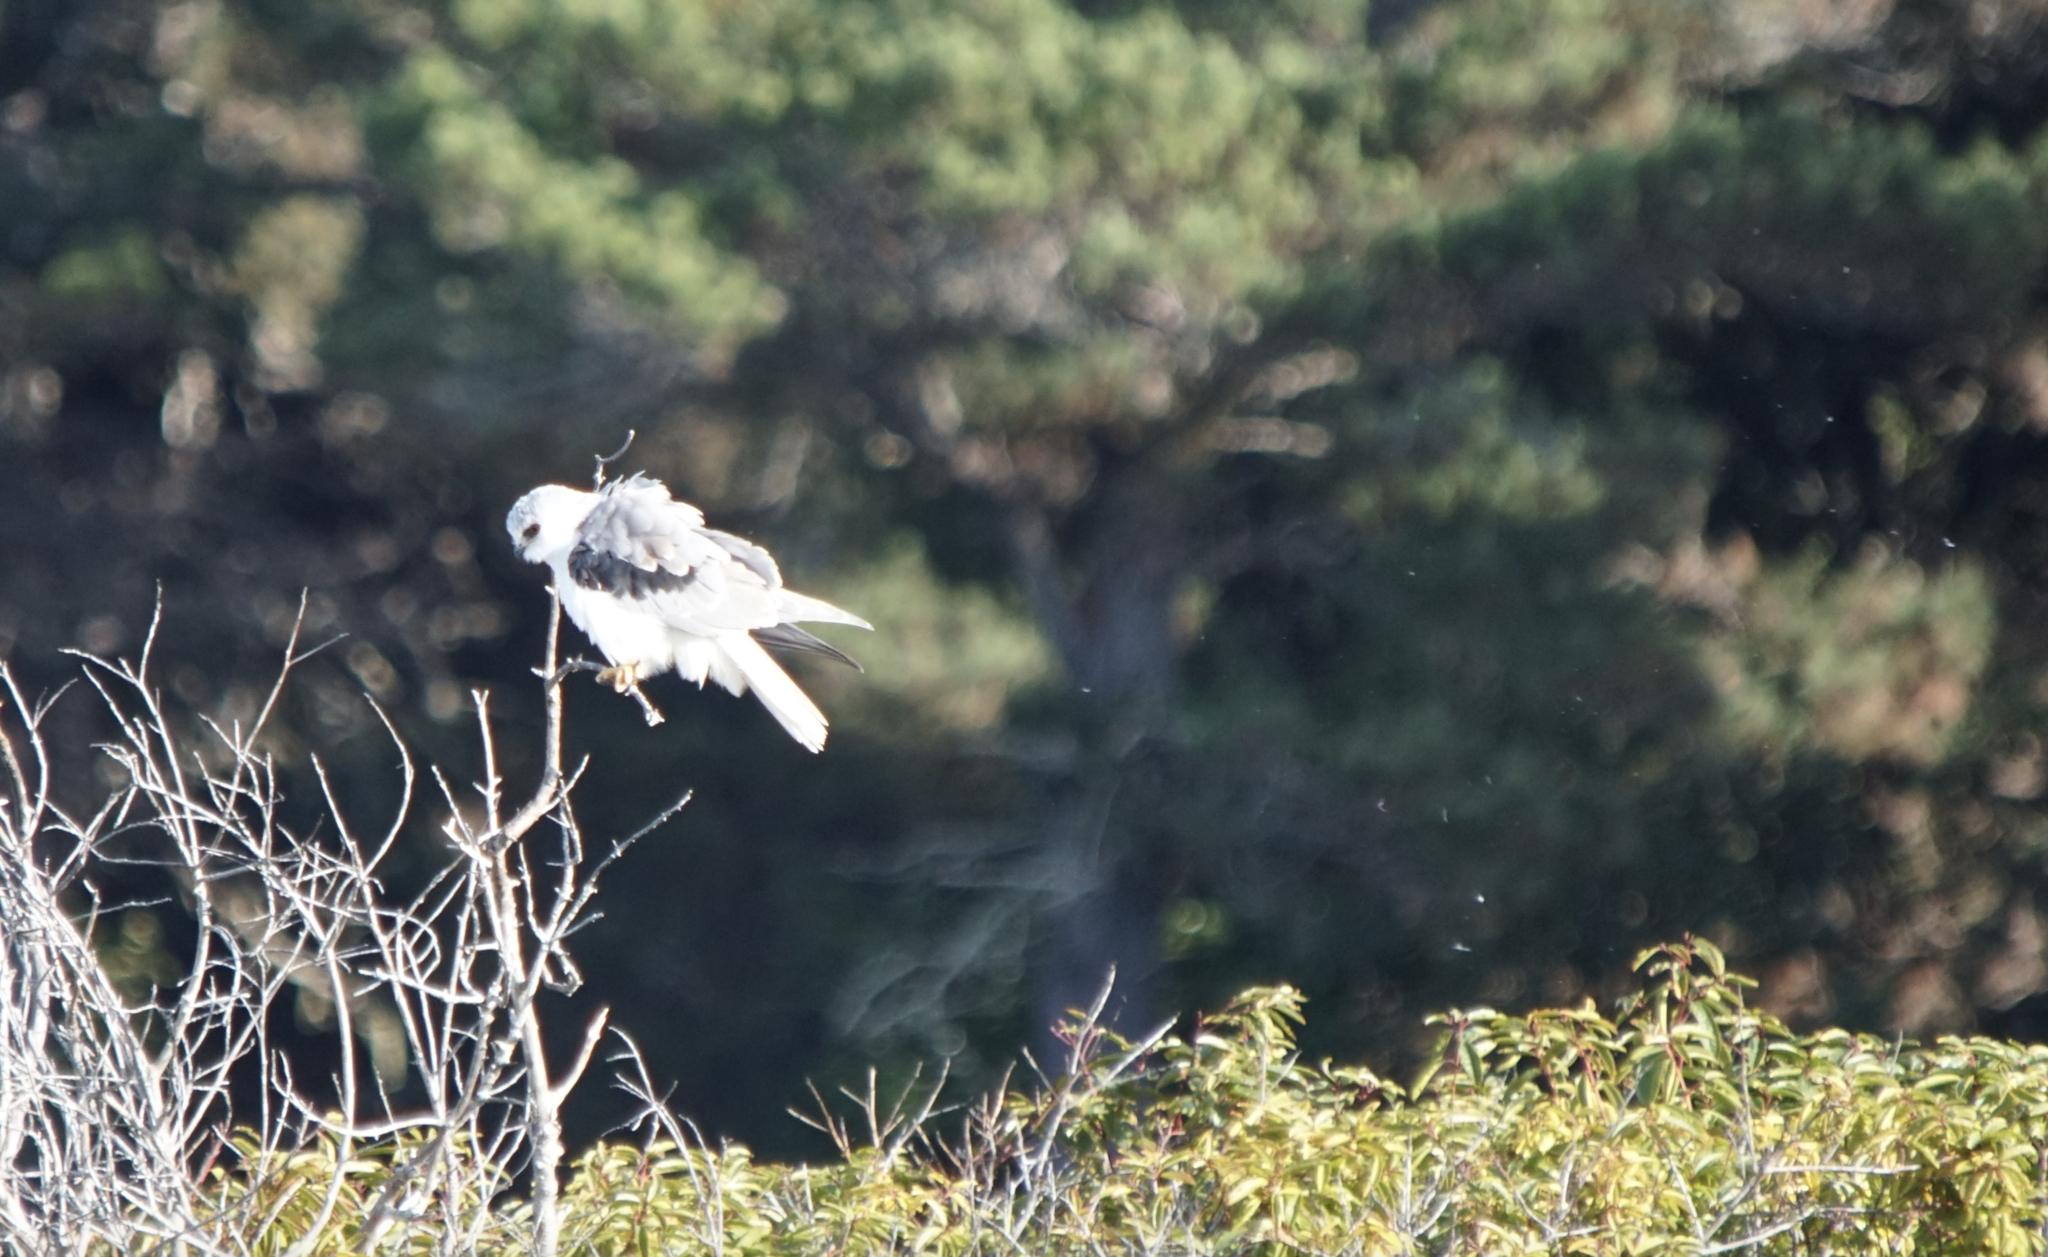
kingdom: Animalia
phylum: Chordata
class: Aves
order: Accipitriformes
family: Accipitridae
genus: Elanus
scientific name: Elanus leucurus
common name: White-tailed kite
